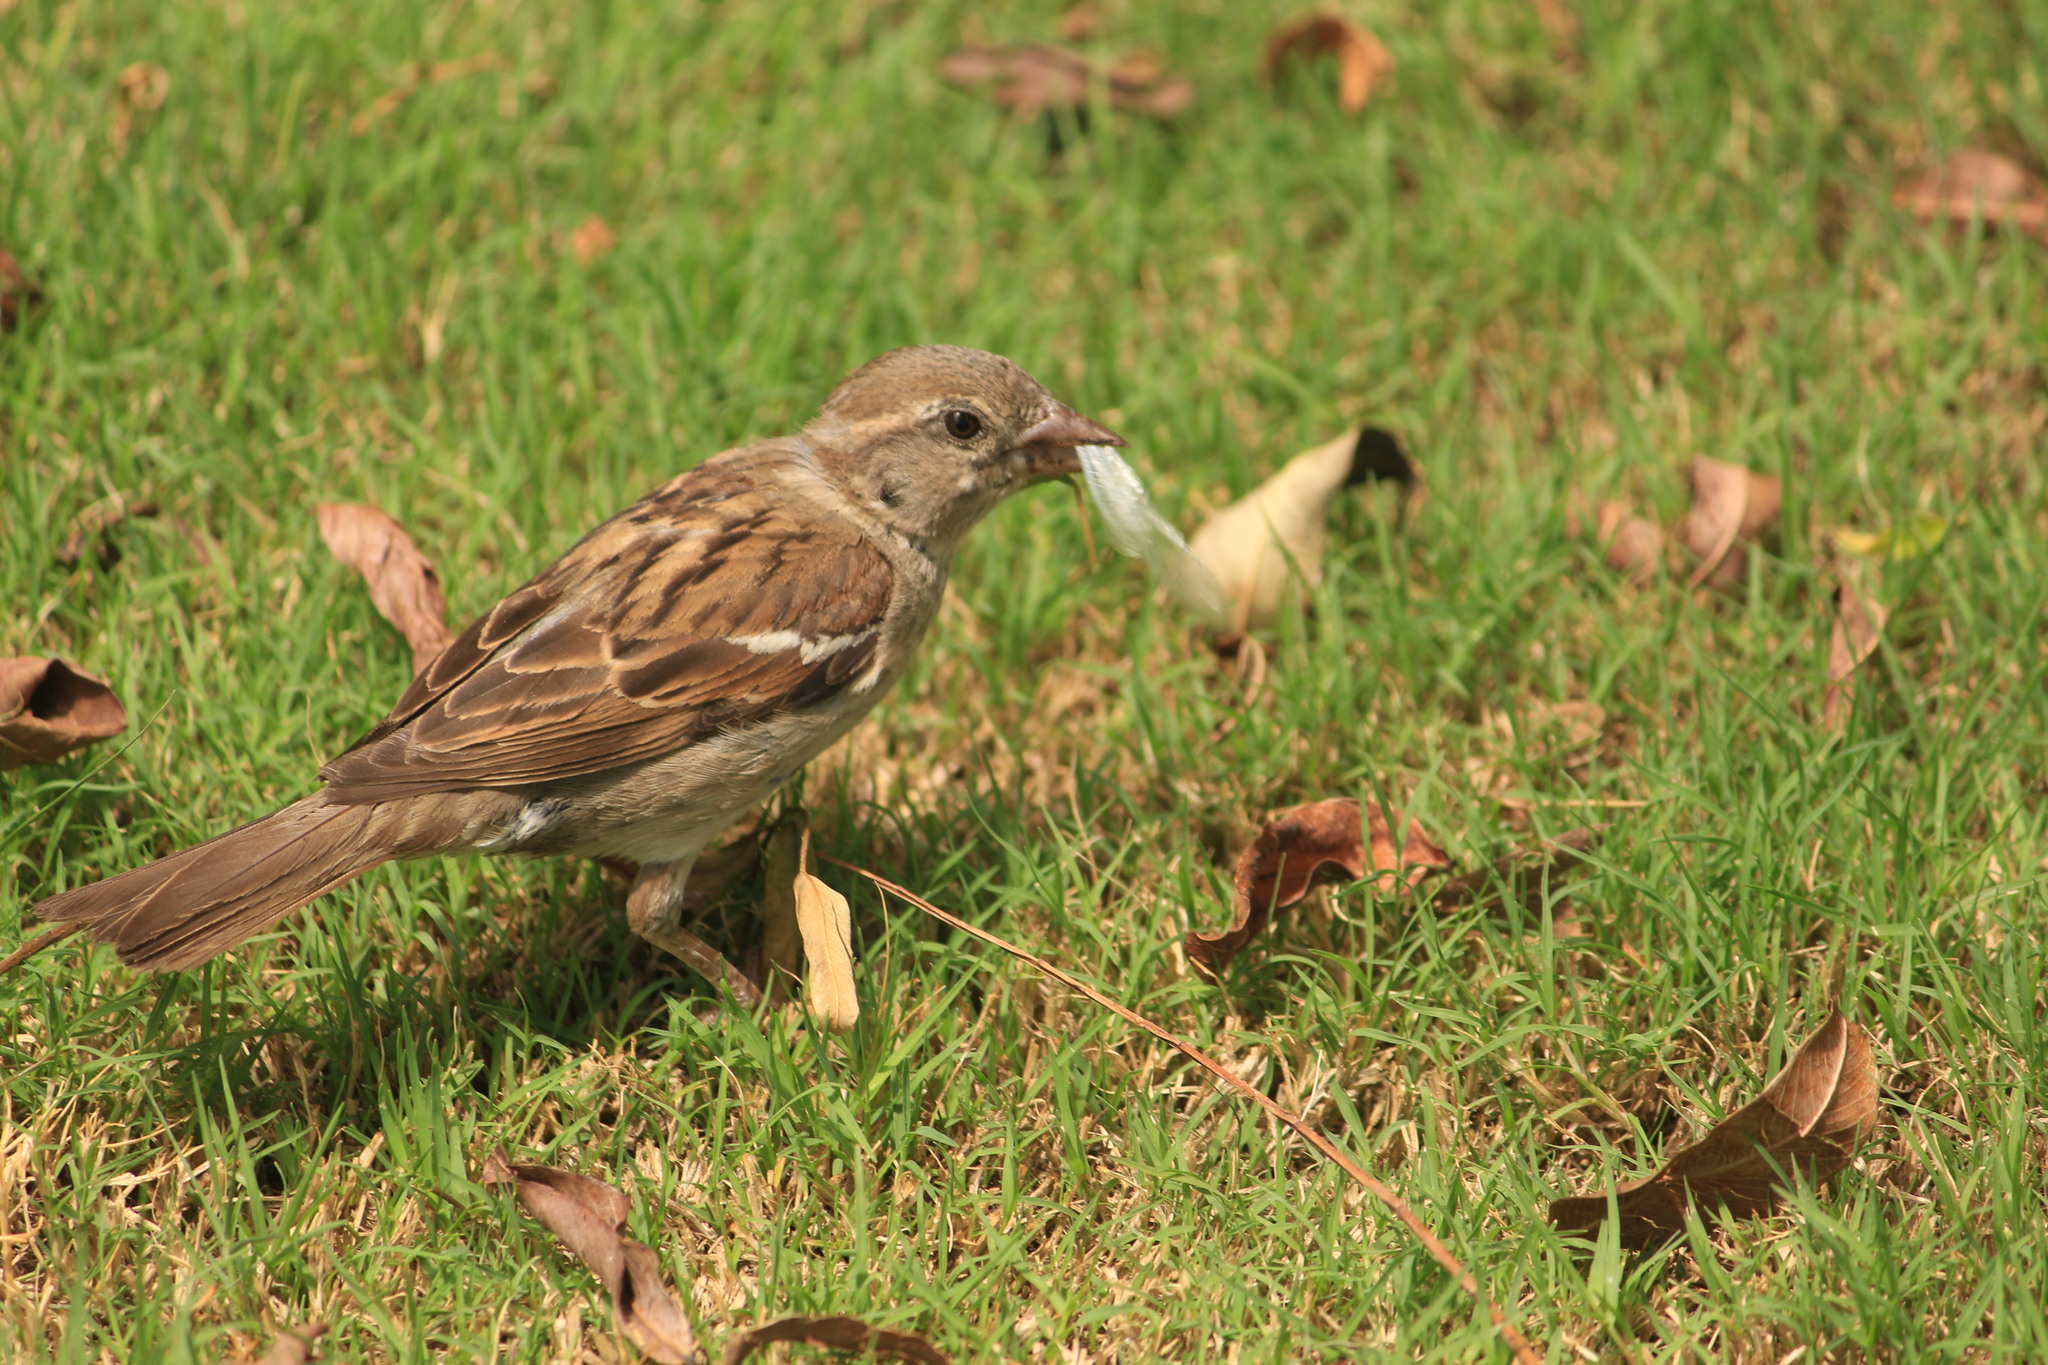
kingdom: Animalia
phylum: Chordata
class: Aves
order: Passeriformes
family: Passeridae
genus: Passer
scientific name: Passer domesticus
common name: House sparrow
